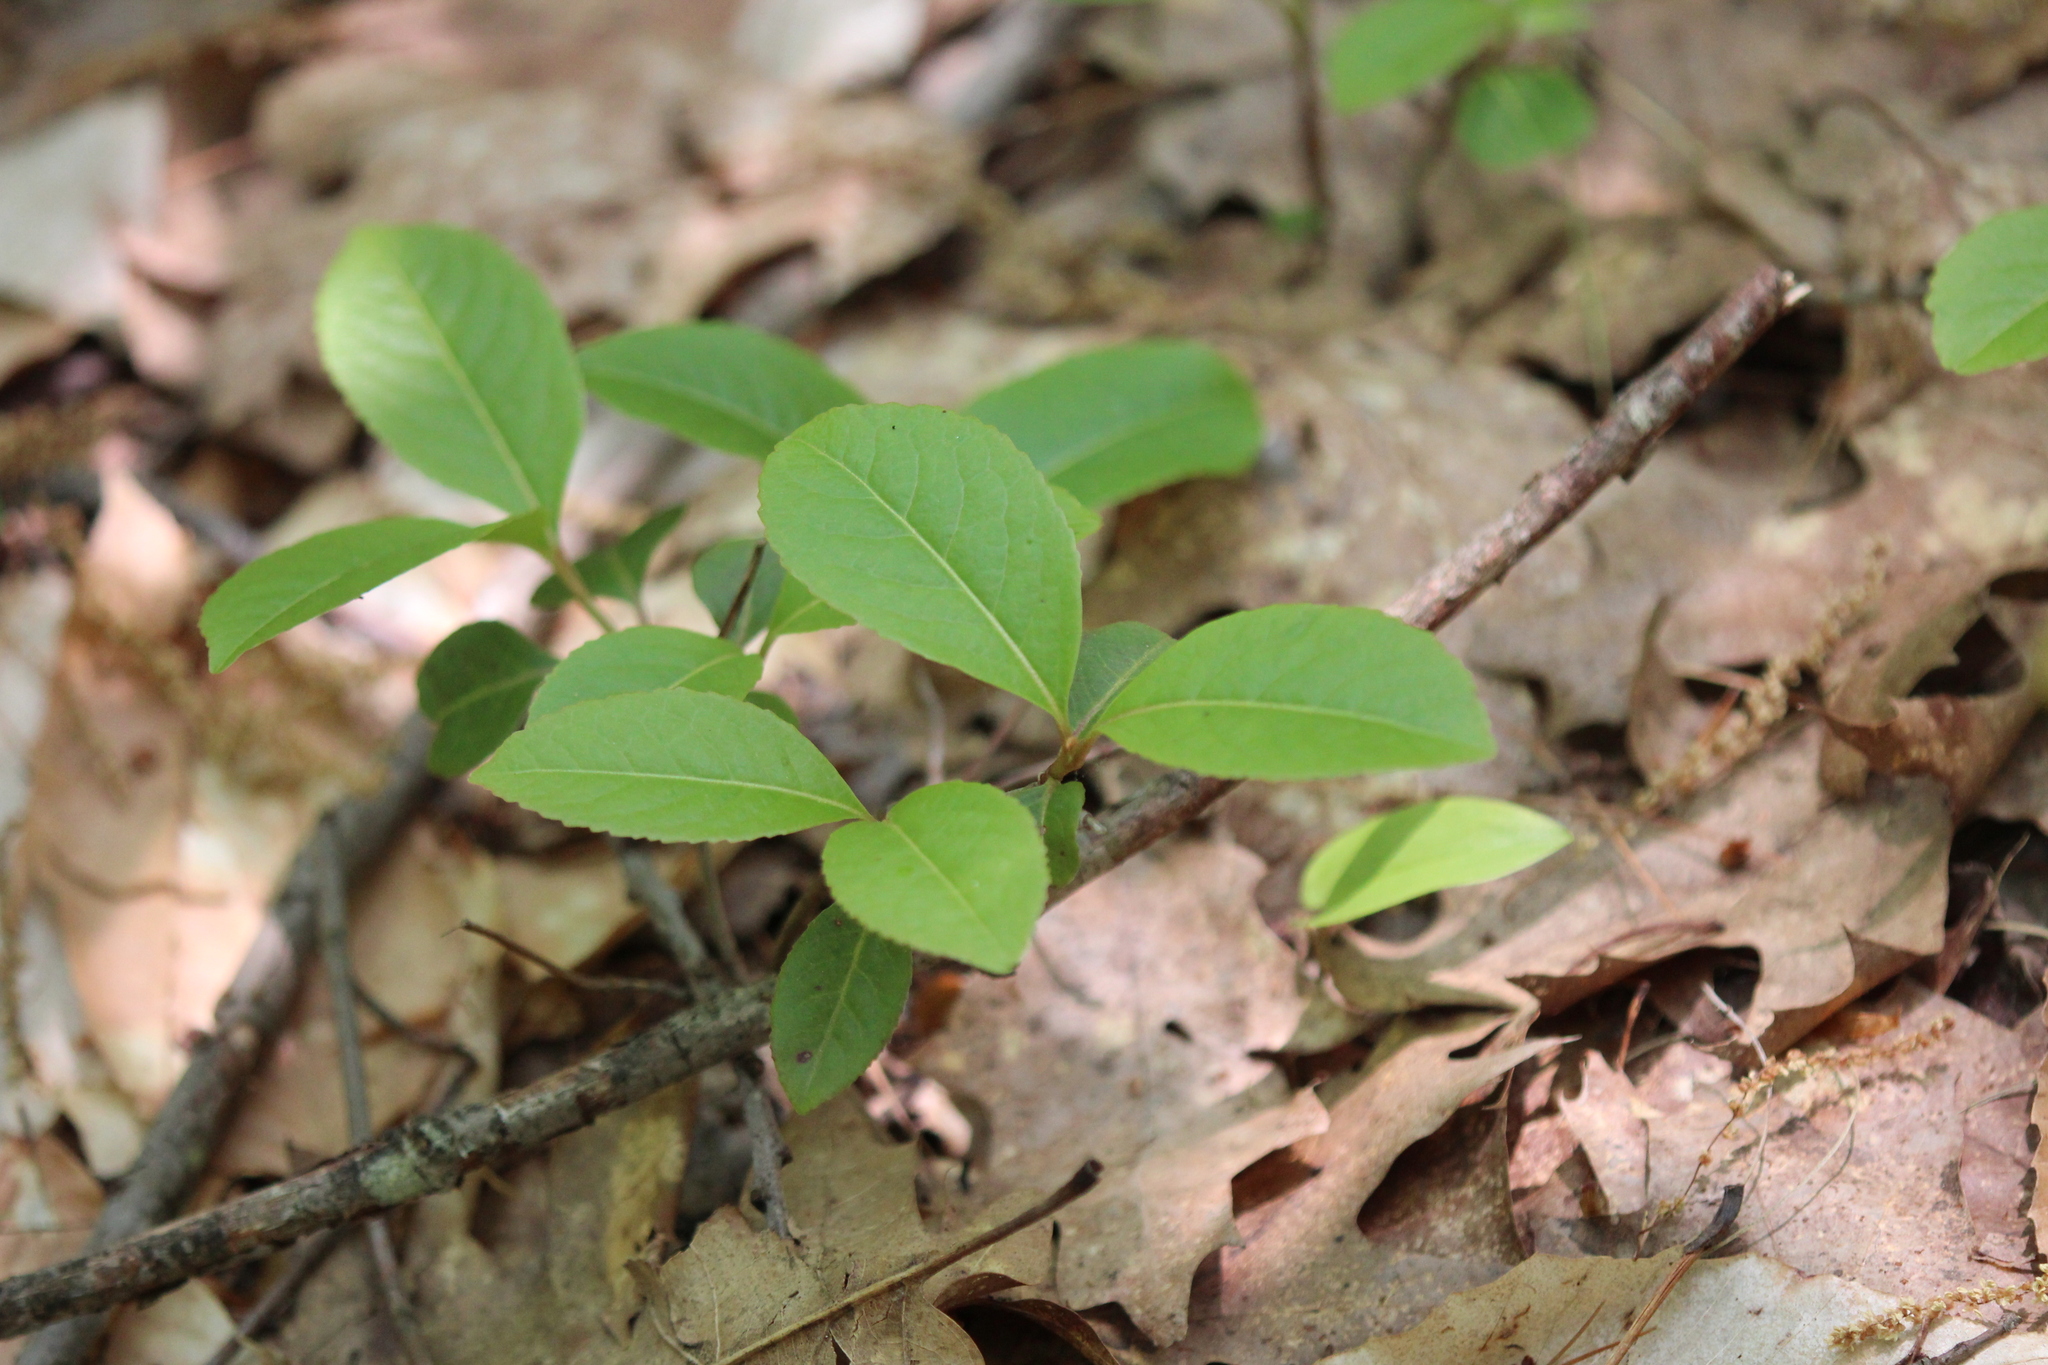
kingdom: Plantae
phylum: Tracheophyta
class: Magnoliopsida
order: Dipsacales
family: Viburnaceae
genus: Viburnum
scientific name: Viburnum cassinoides
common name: Swamp haw
